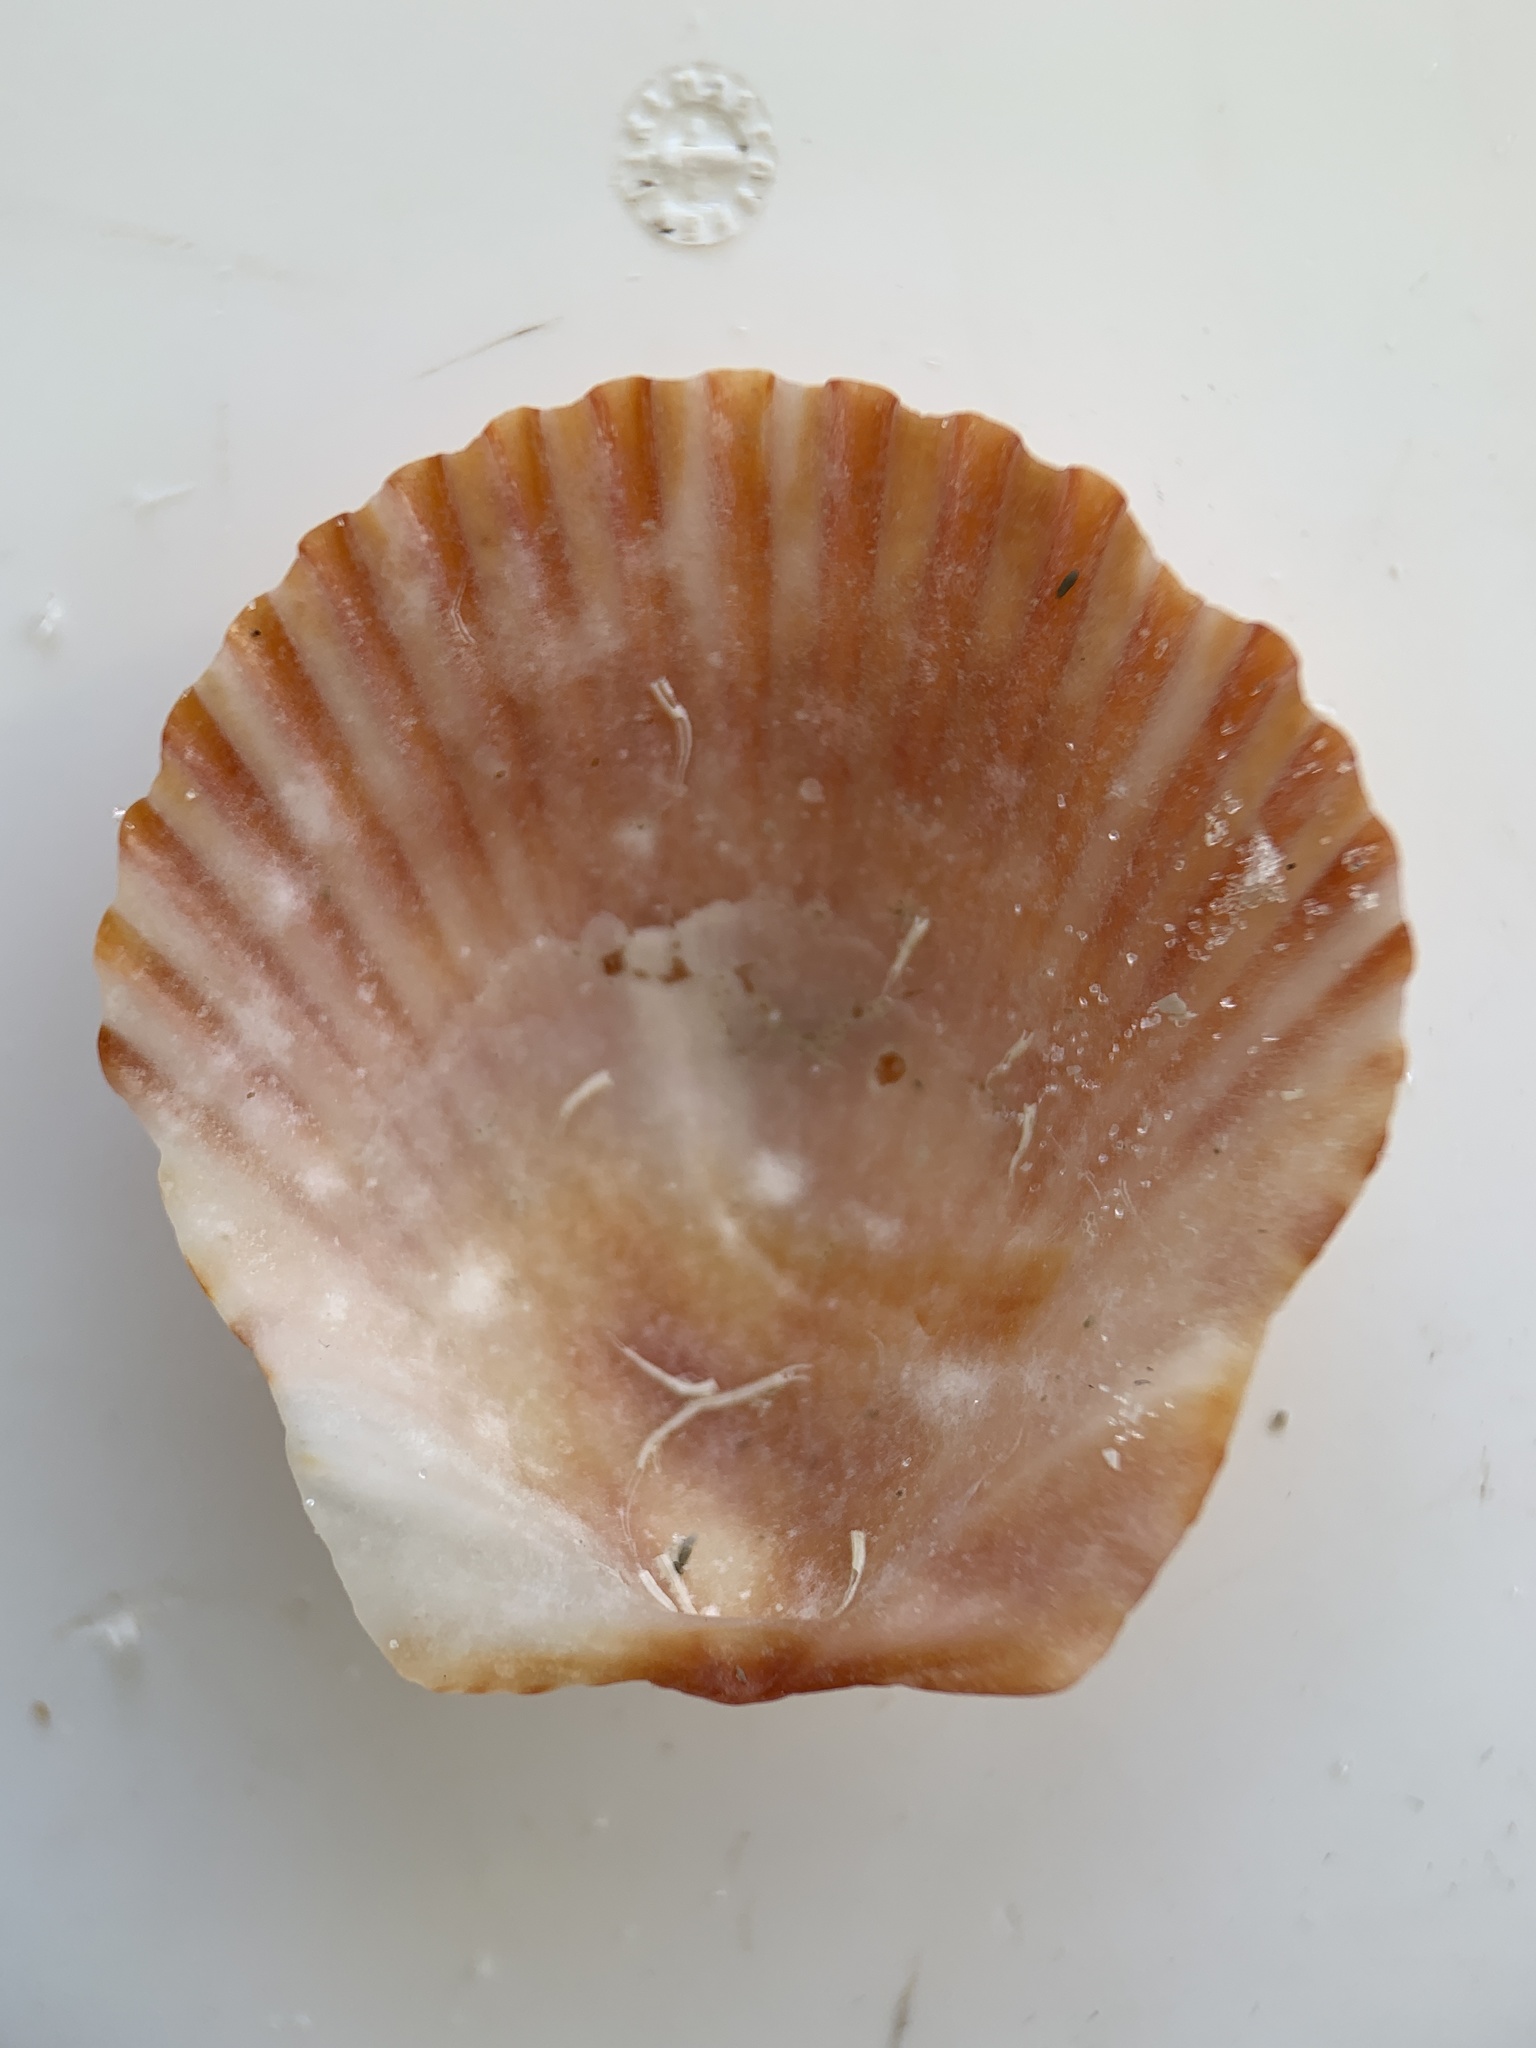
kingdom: Animalia
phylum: Mollusca
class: Bivalvia
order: Pectinida
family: Pectinidae
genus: Argopecten
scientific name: Argopecten gibbus
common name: Atlantic calico scallop
